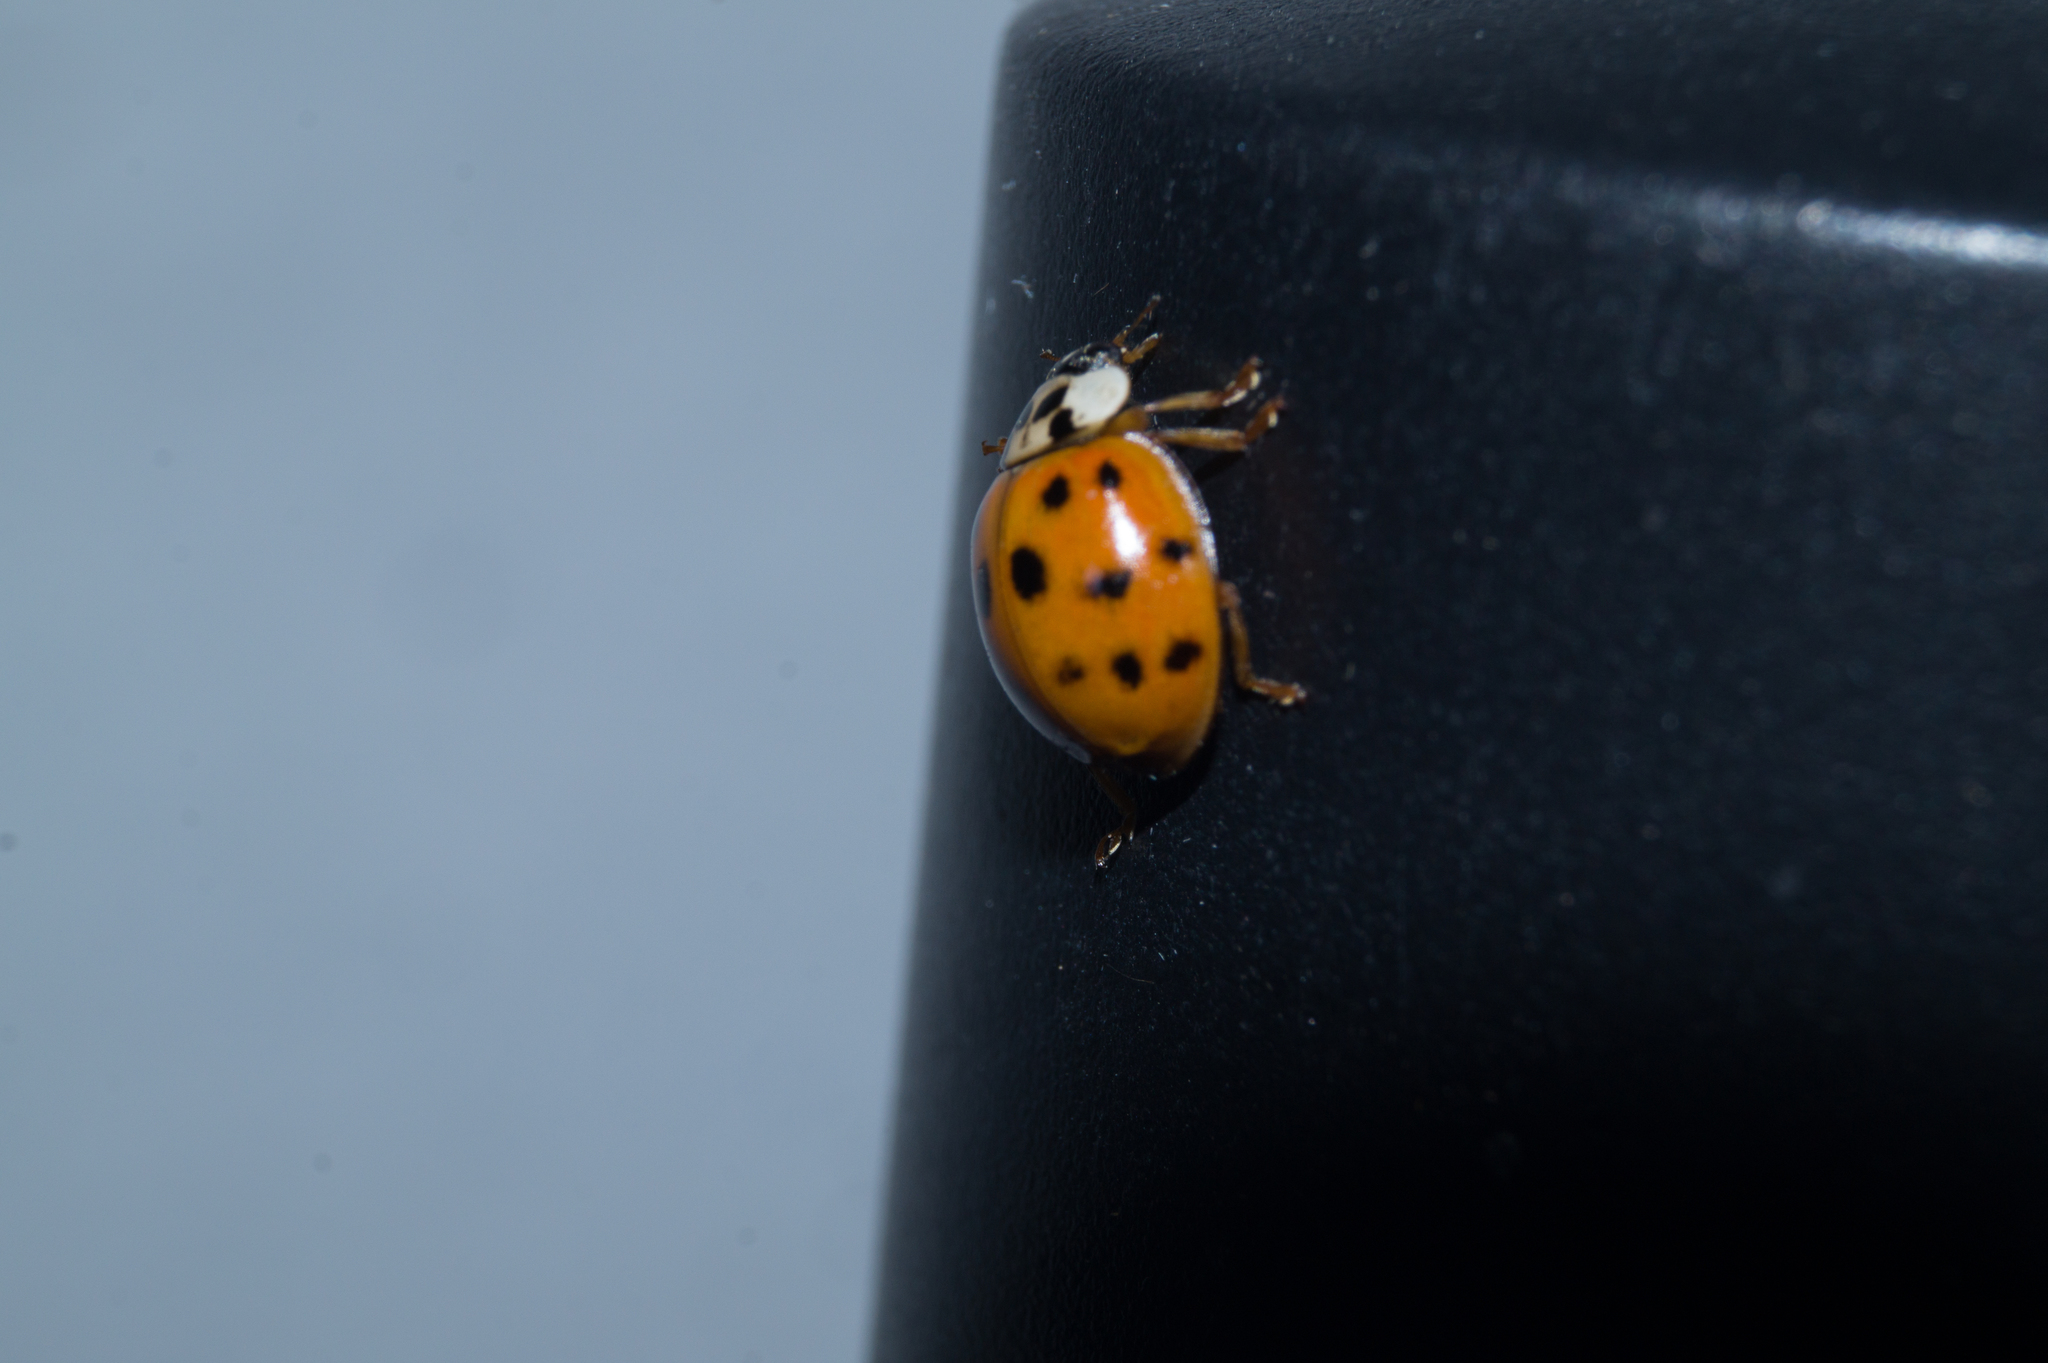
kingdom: Animalia
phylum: Arthropoda
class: Insecta
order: Coleoptera
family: Coccinellidae
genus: Harmonia
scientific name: Harmonia axyridis
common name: Harlequin ladybird
